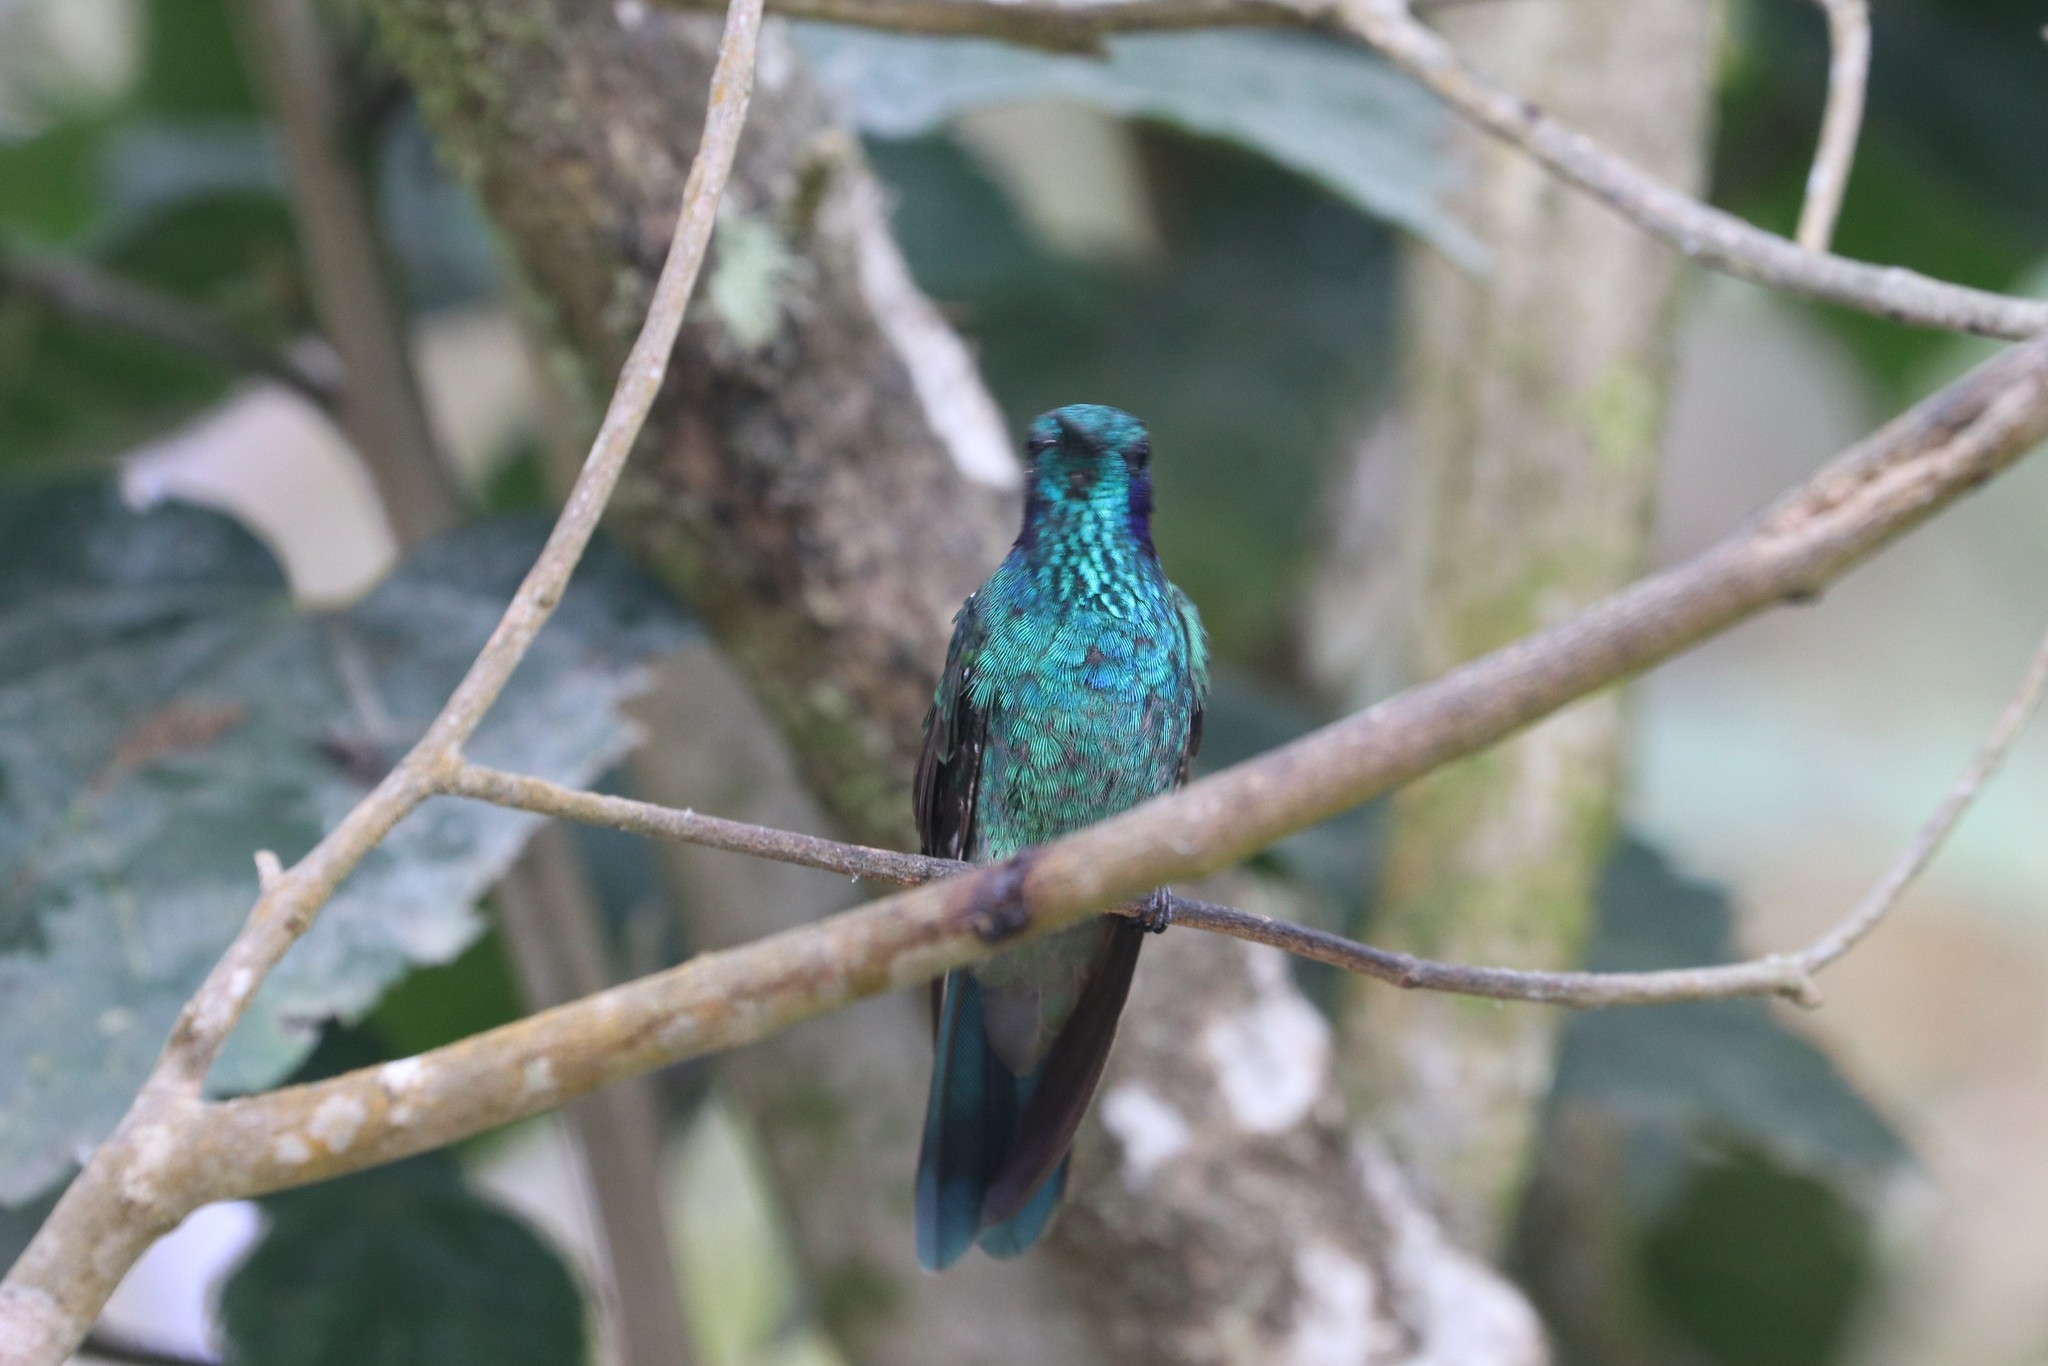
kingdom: Animalia
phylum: Chordata
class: Aves
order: Apodiformes
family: Trochilidae
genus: Colibri
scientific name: Colibri cyanotus
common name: Lesser violetear
